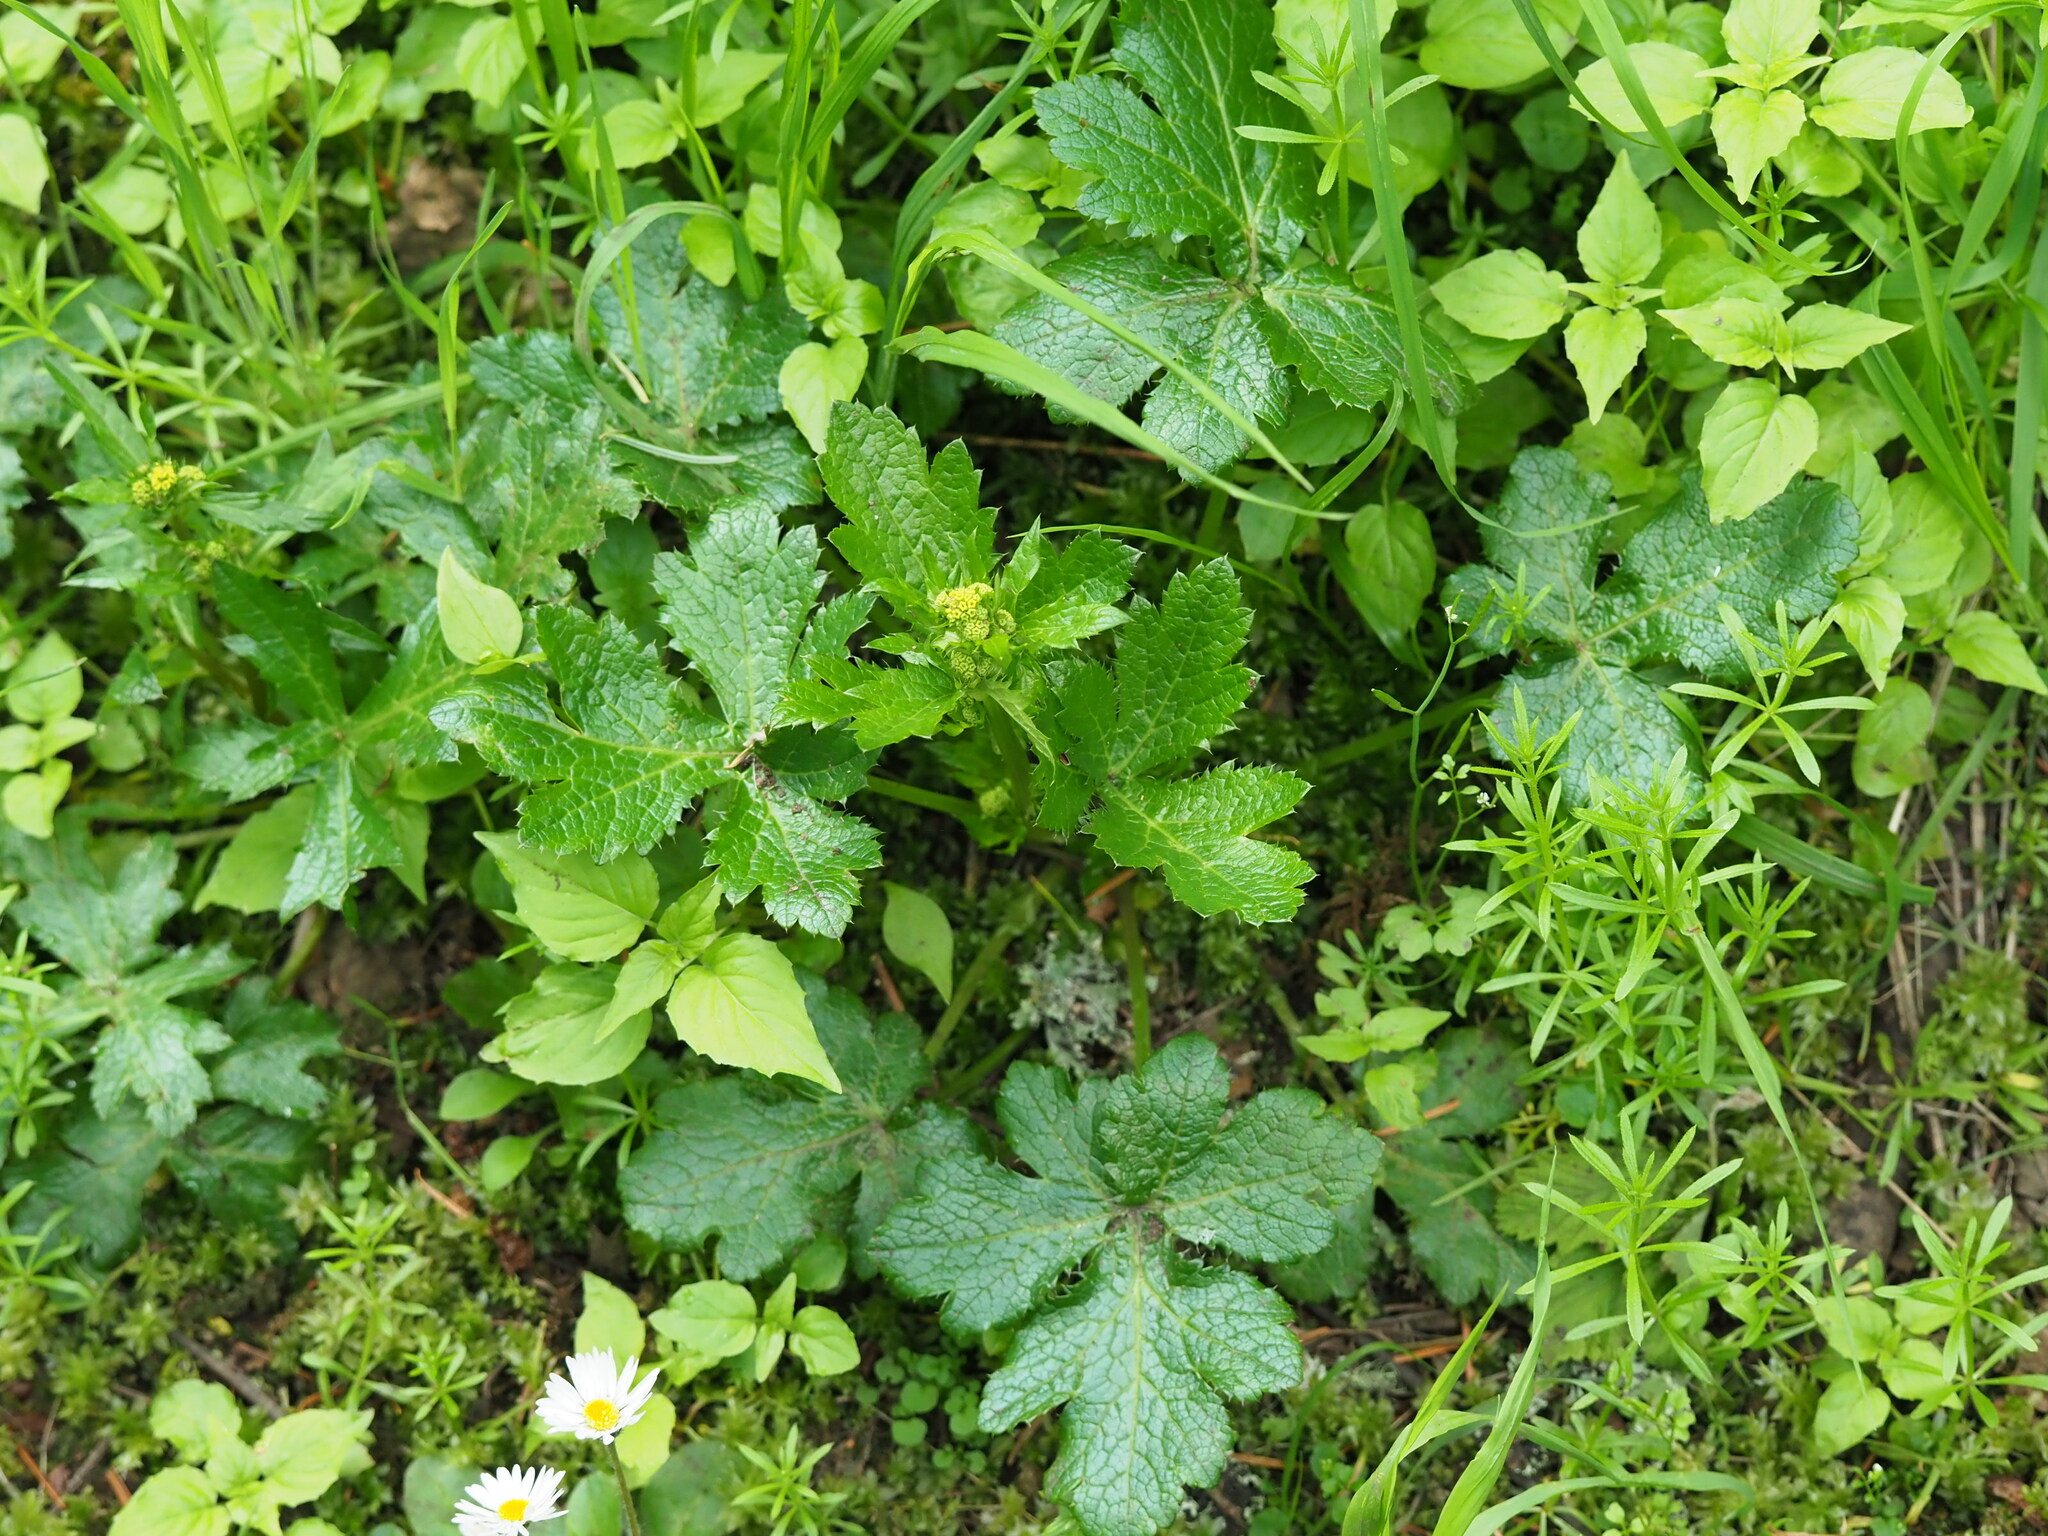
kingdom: Plantae
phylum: Tracheophyta
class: Magnoliopsida
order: Apiales
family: Apiaceae
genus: Sanicula
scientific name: Sanicula crassicaulis
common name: Western snakeroot
